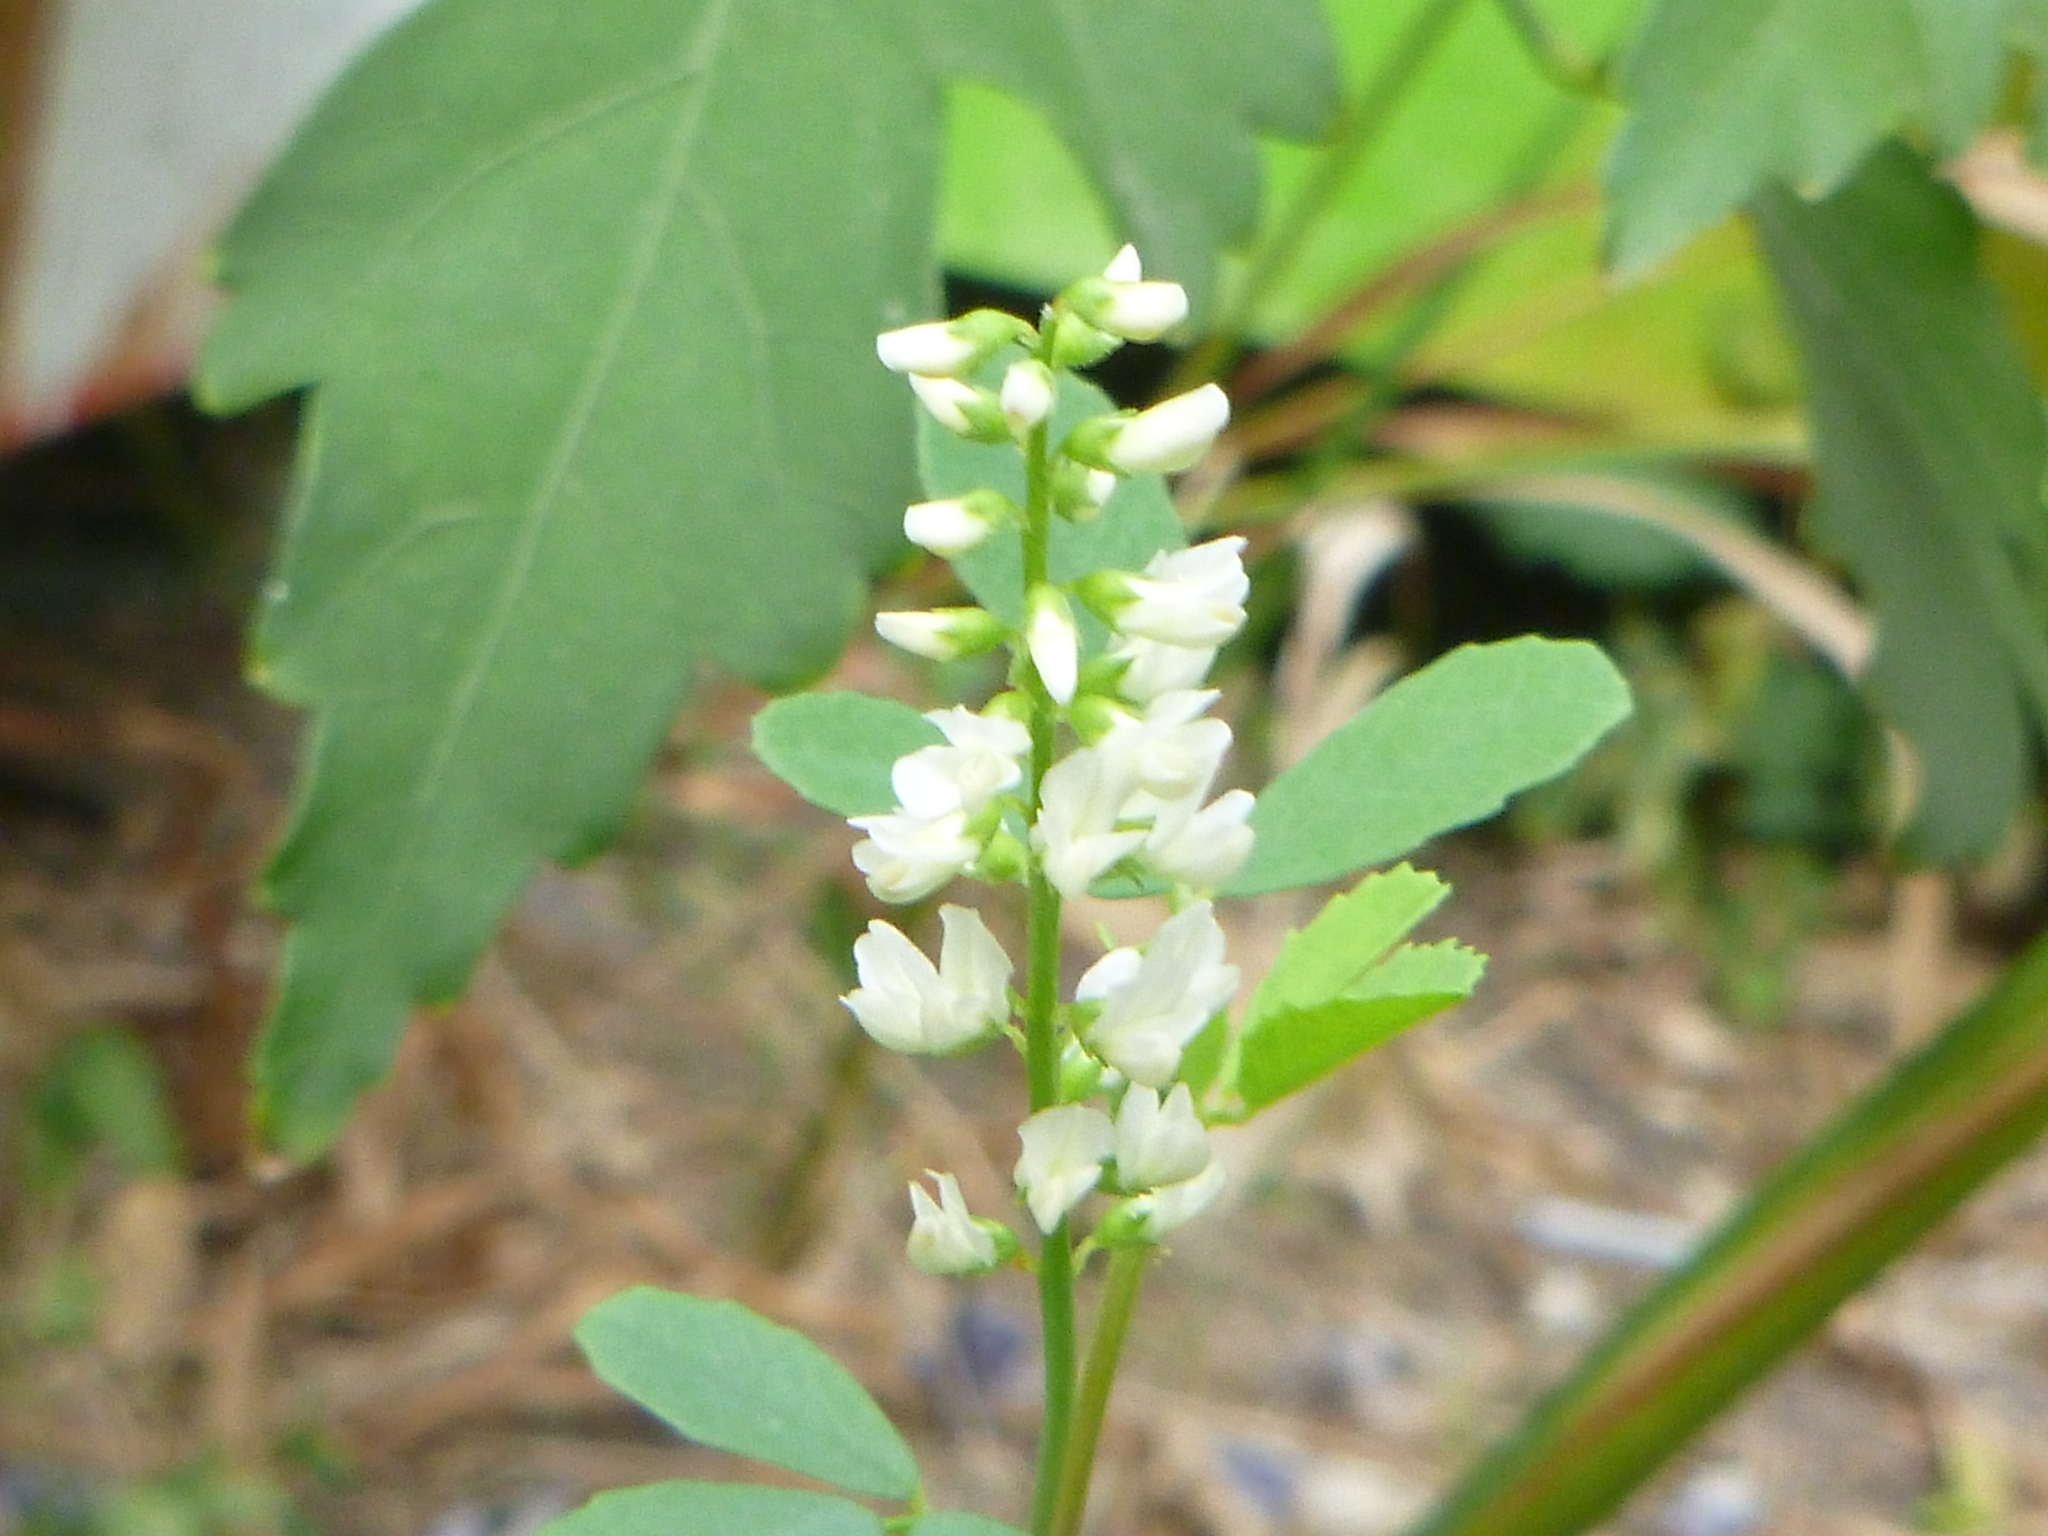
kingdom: Plantae
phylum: Tracheophyta
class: Magnoliopsida
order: Fabales
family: Fabaceae
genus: Melilotus
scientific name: Melilotus albus
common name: White melilot
